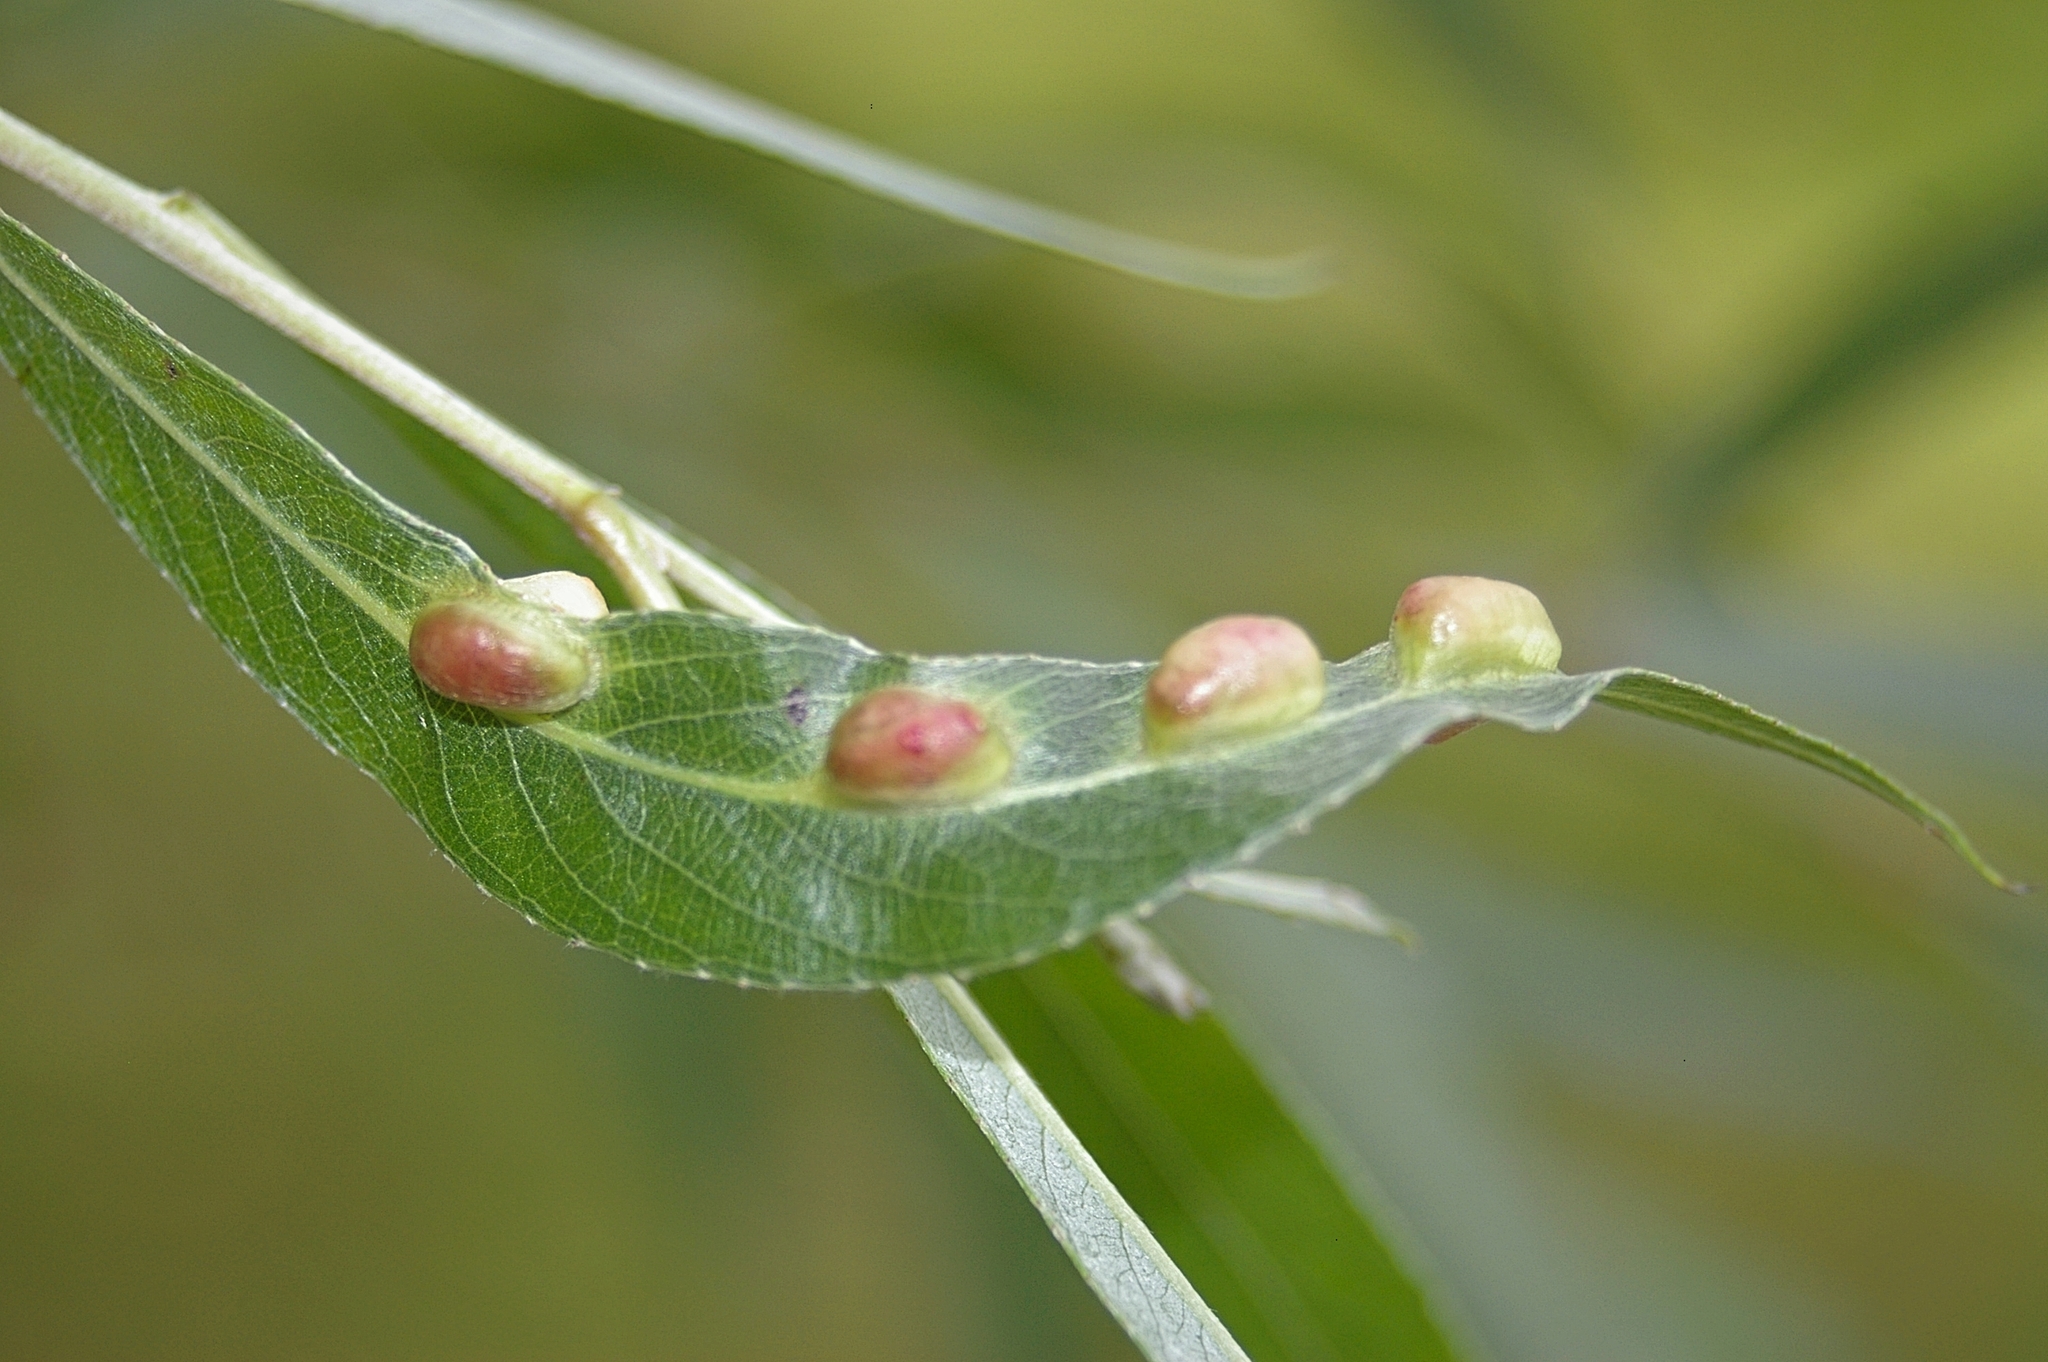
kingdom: Animalia
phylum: Arthropoda
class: Insecta
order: Hymenoptera
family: Tenthredinidae
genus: Pontania
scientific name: Pontania proxima
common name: Common sawfly
